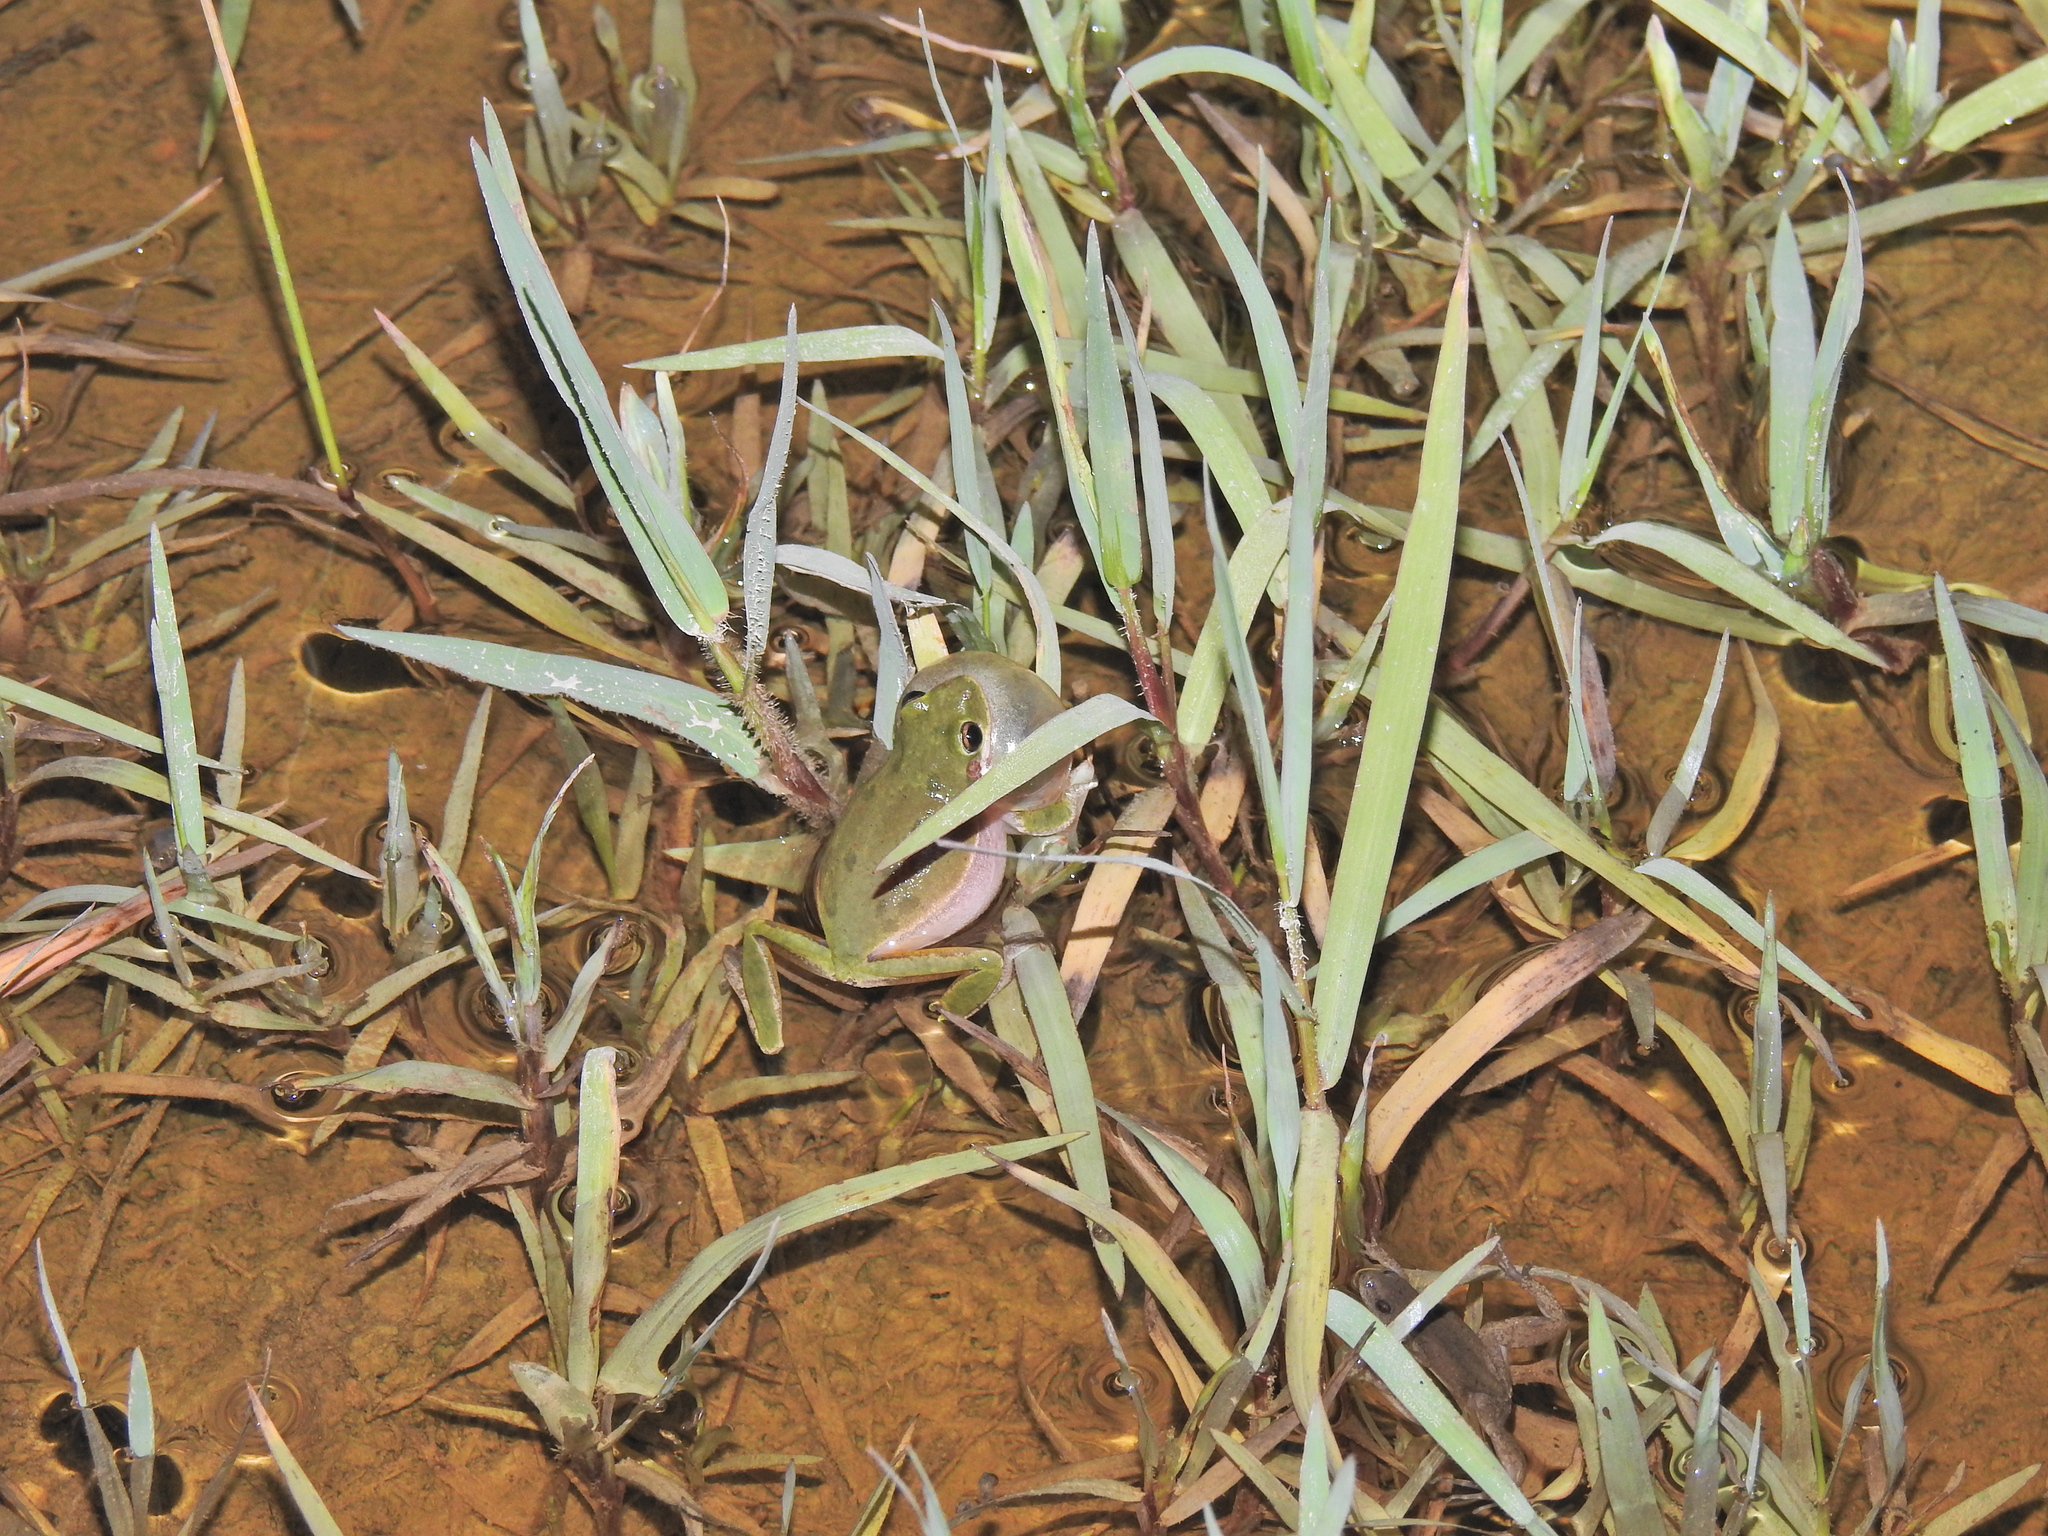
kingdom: Animalia
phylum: Chordata
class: Amphibia
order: Anura
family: Hylidae
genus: Dryophytes
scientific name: Dryophytes cinereus
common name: Green treefrog
